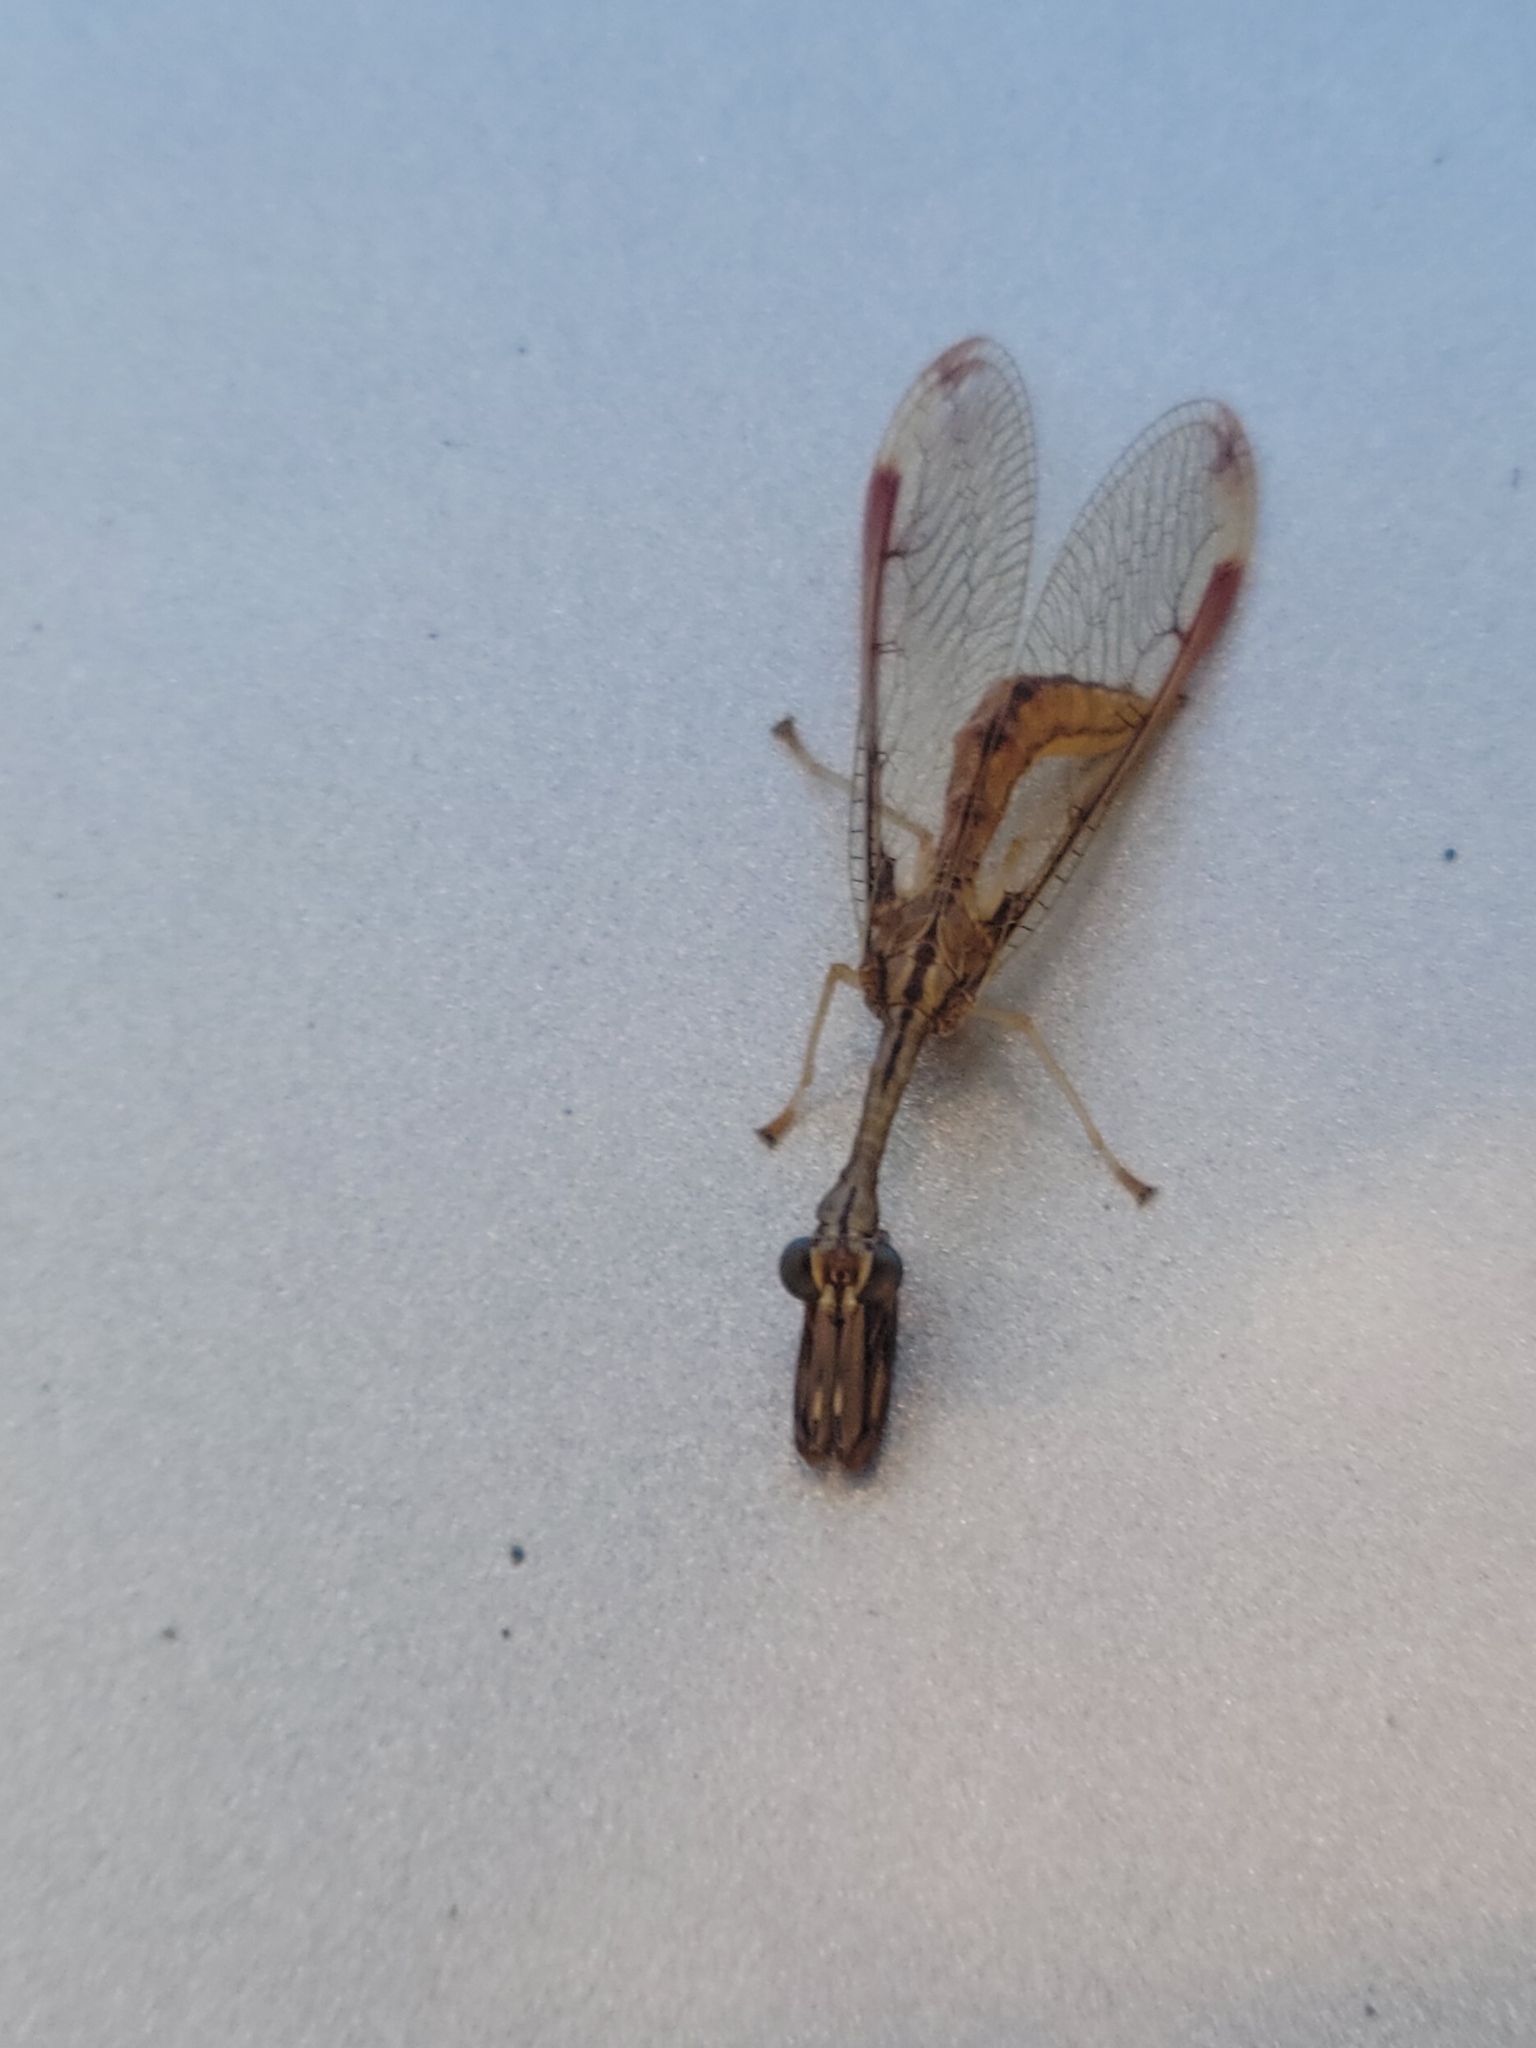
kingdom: Animalia
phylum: Arthropoda
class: Insecta
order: Neuroptera
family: Mantispidae
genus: Dicromantispa
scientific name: Dicromantispa interrupta
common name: Four-spotted mantidfly
